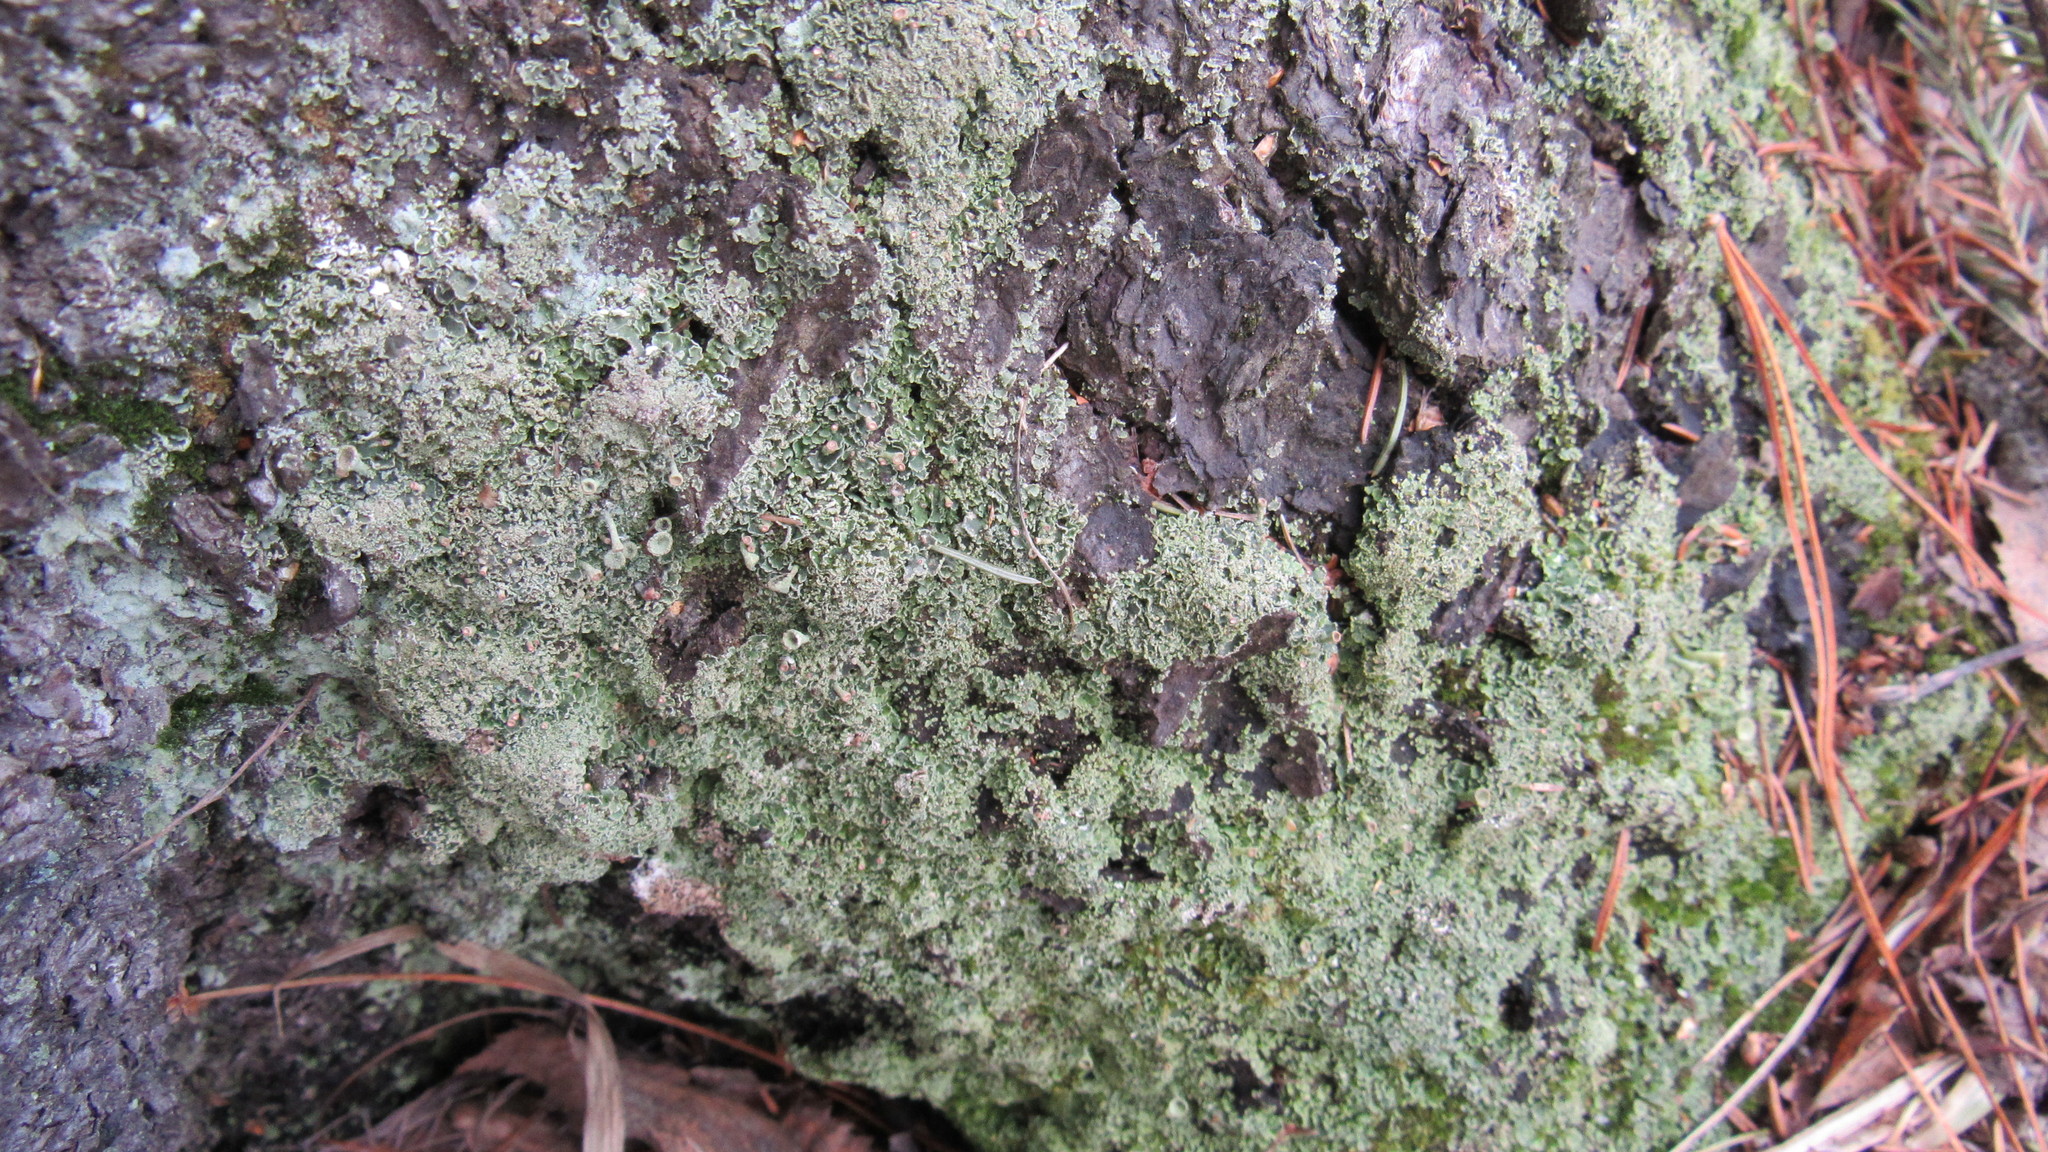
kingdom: Fungi
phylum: Ascomycota
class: Lecanoromycetes
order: Lecanorales
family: Cladoniaceae
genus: Cladonia
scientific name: Cladonia fimbriata
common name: Powdered trumpet lichen
